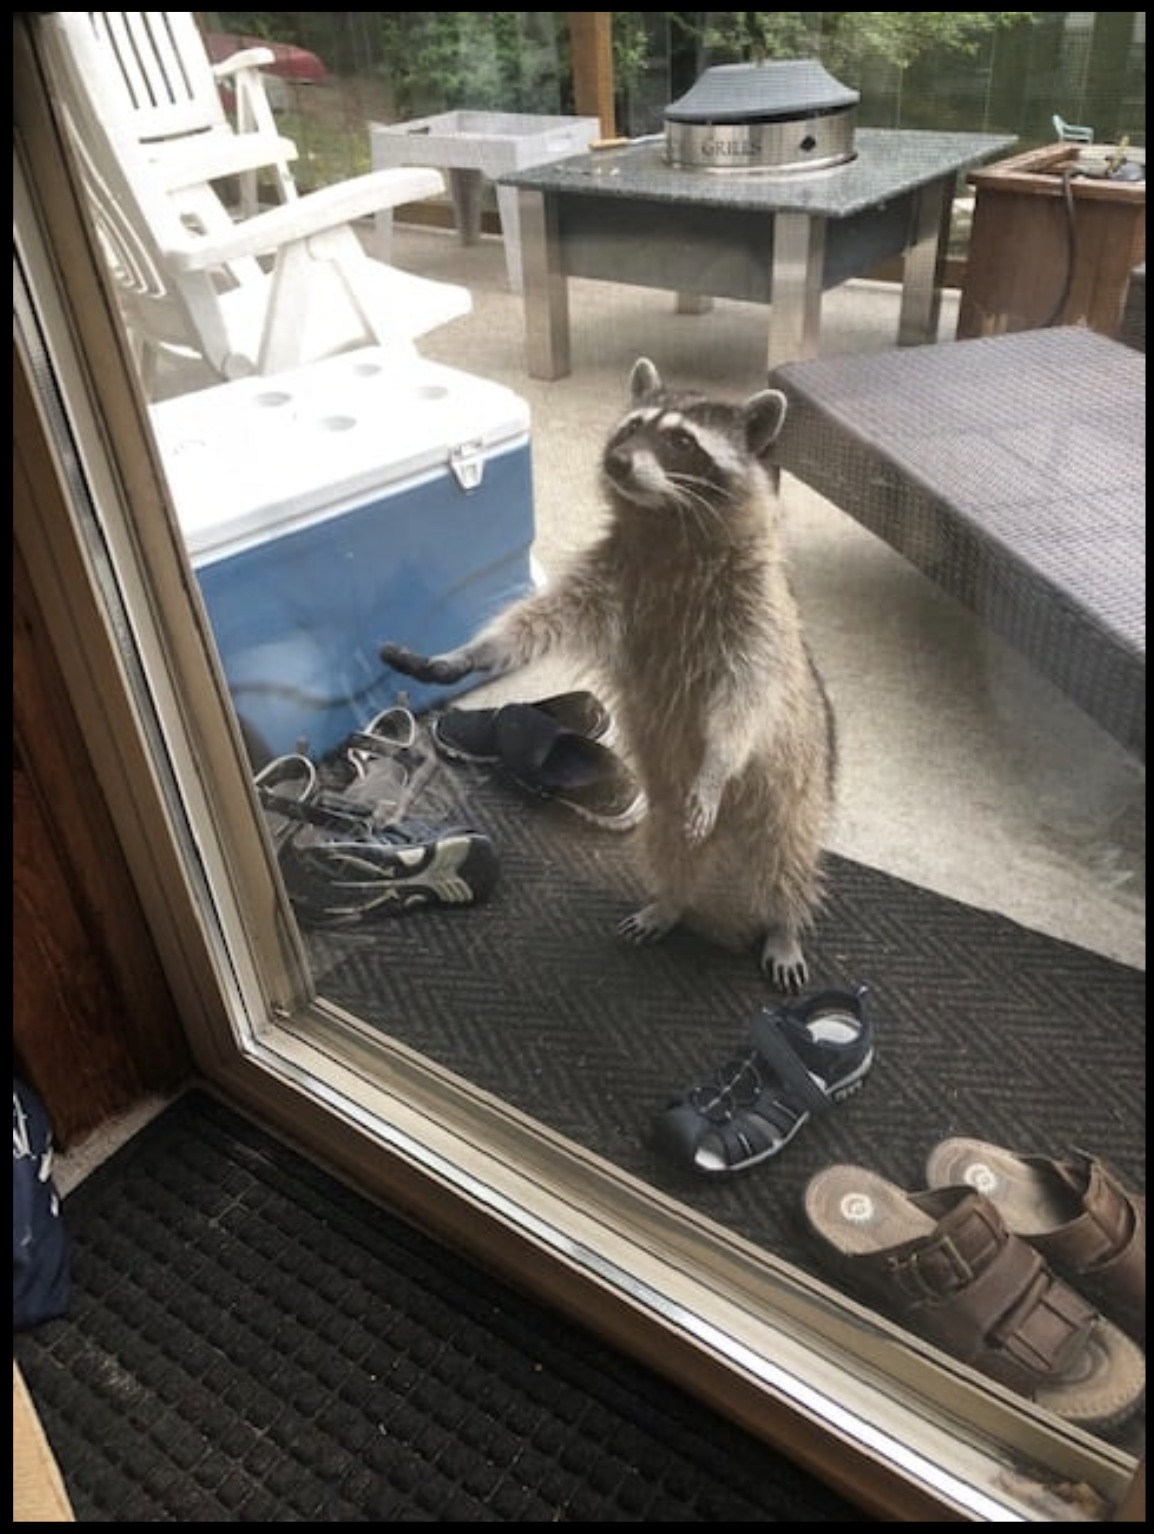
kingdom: Animalia
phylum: Chordata
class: Mammalia
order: Carnivora
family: Procyonidae
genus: Procyon
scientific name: Procyon lotor
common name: Raccoon
